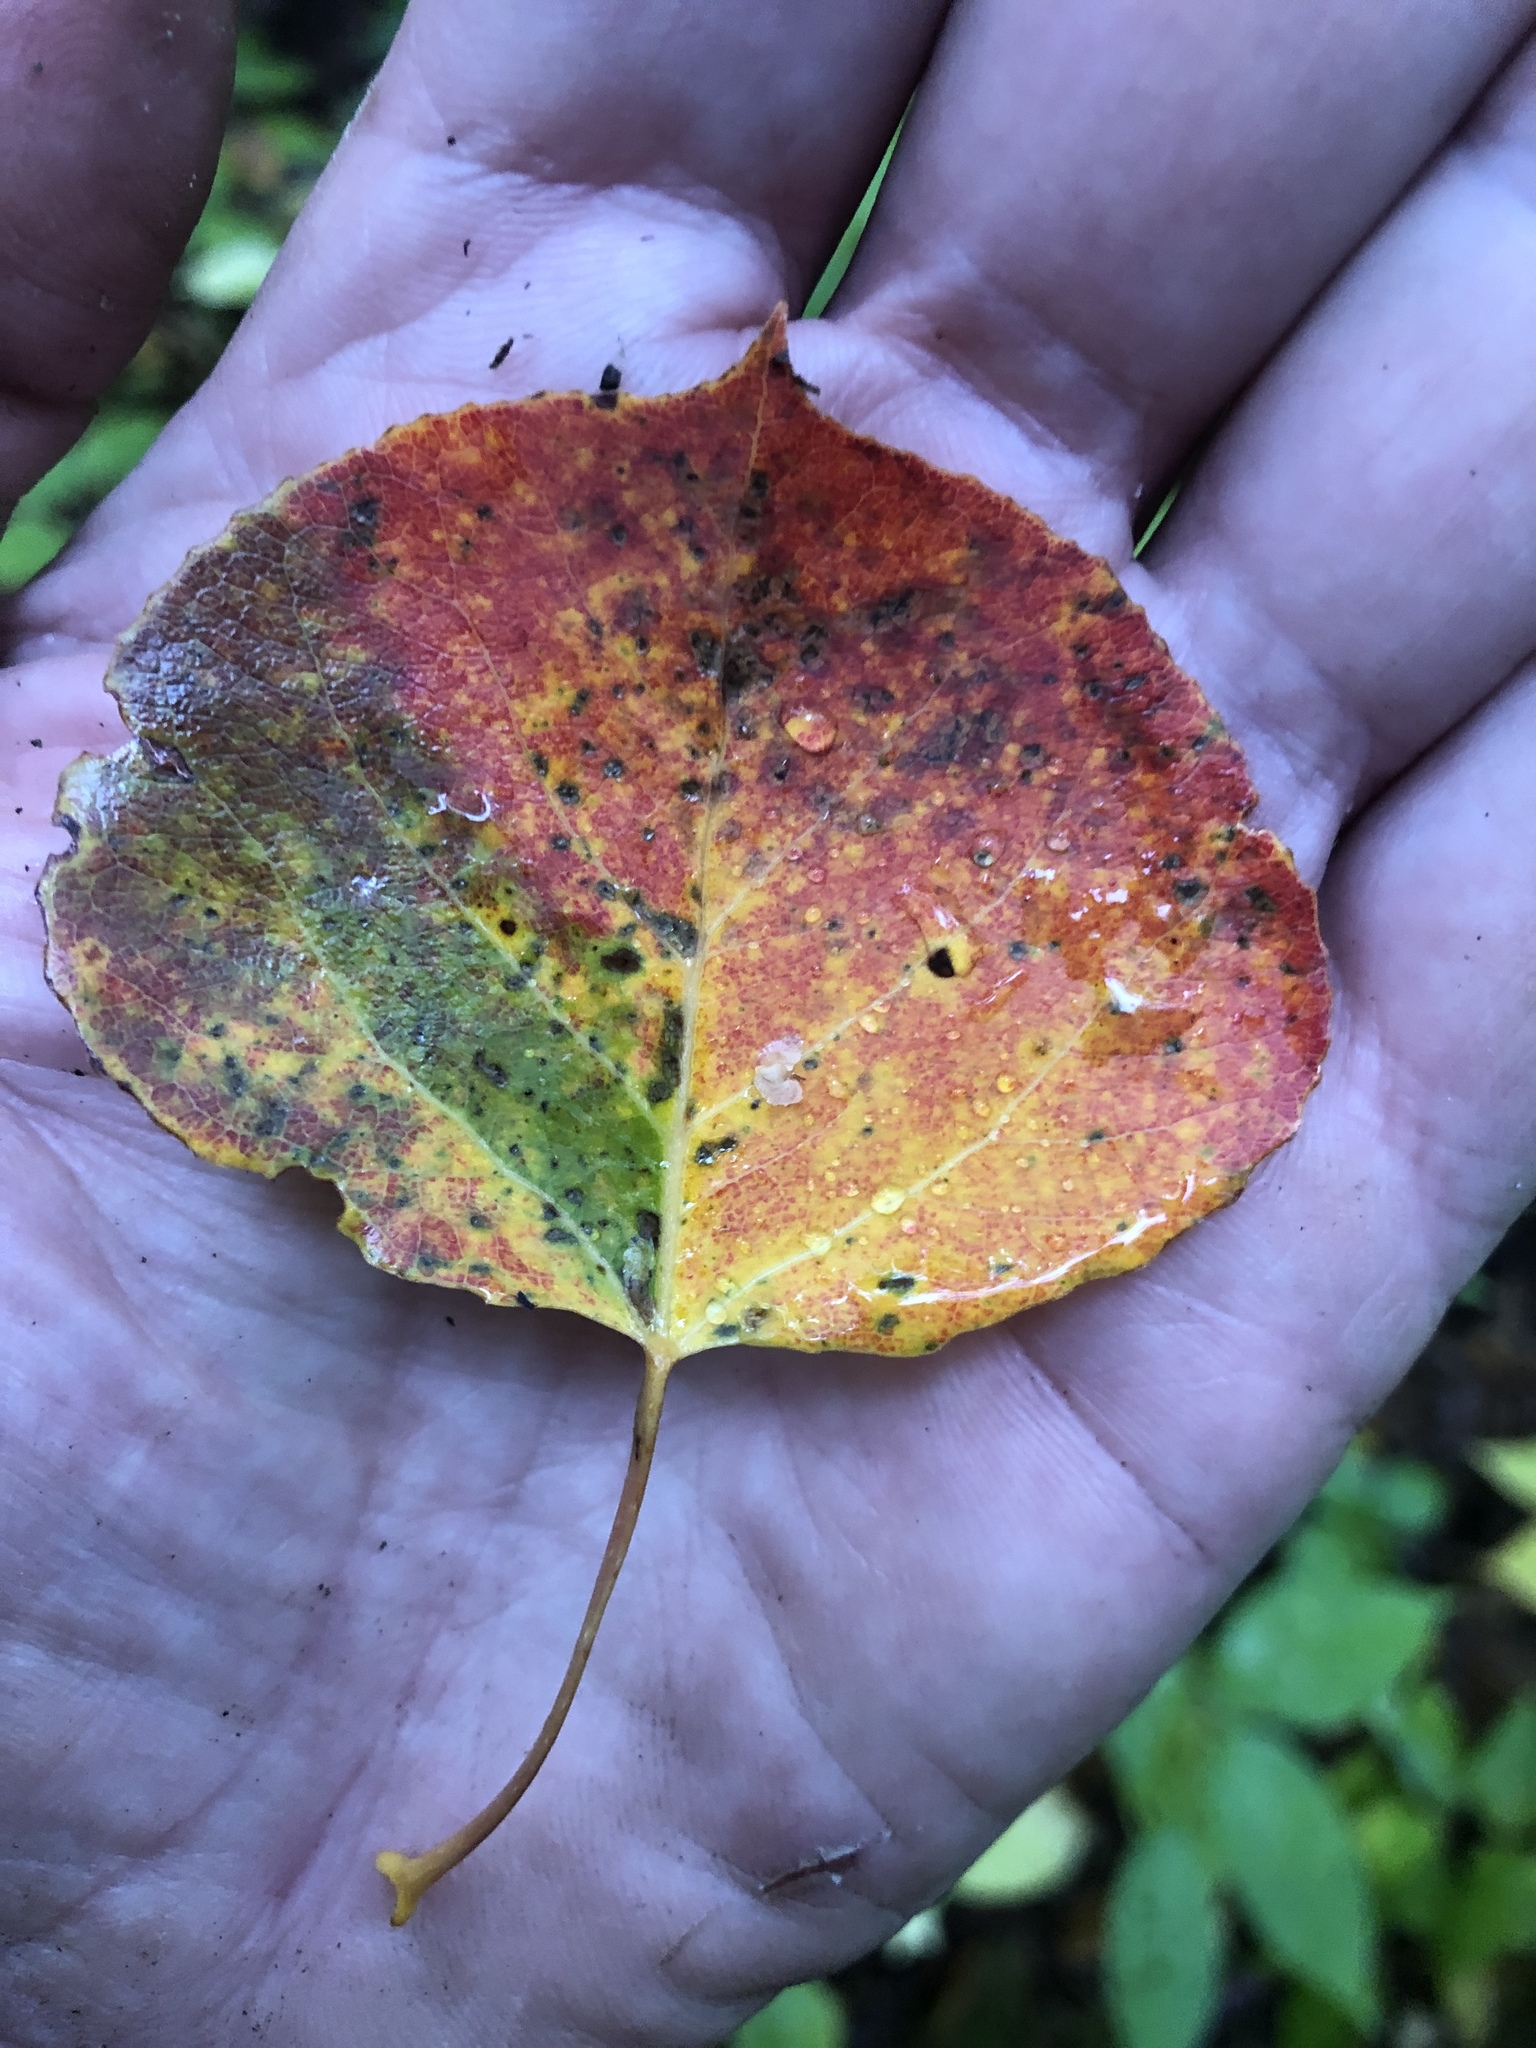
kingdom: Plantae
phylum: Tracheophyta
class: Magnoliopsida
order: Malpighiales
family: Salicaceae
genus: Populus
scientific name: Populus tremuloides
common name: Quaking aspen
